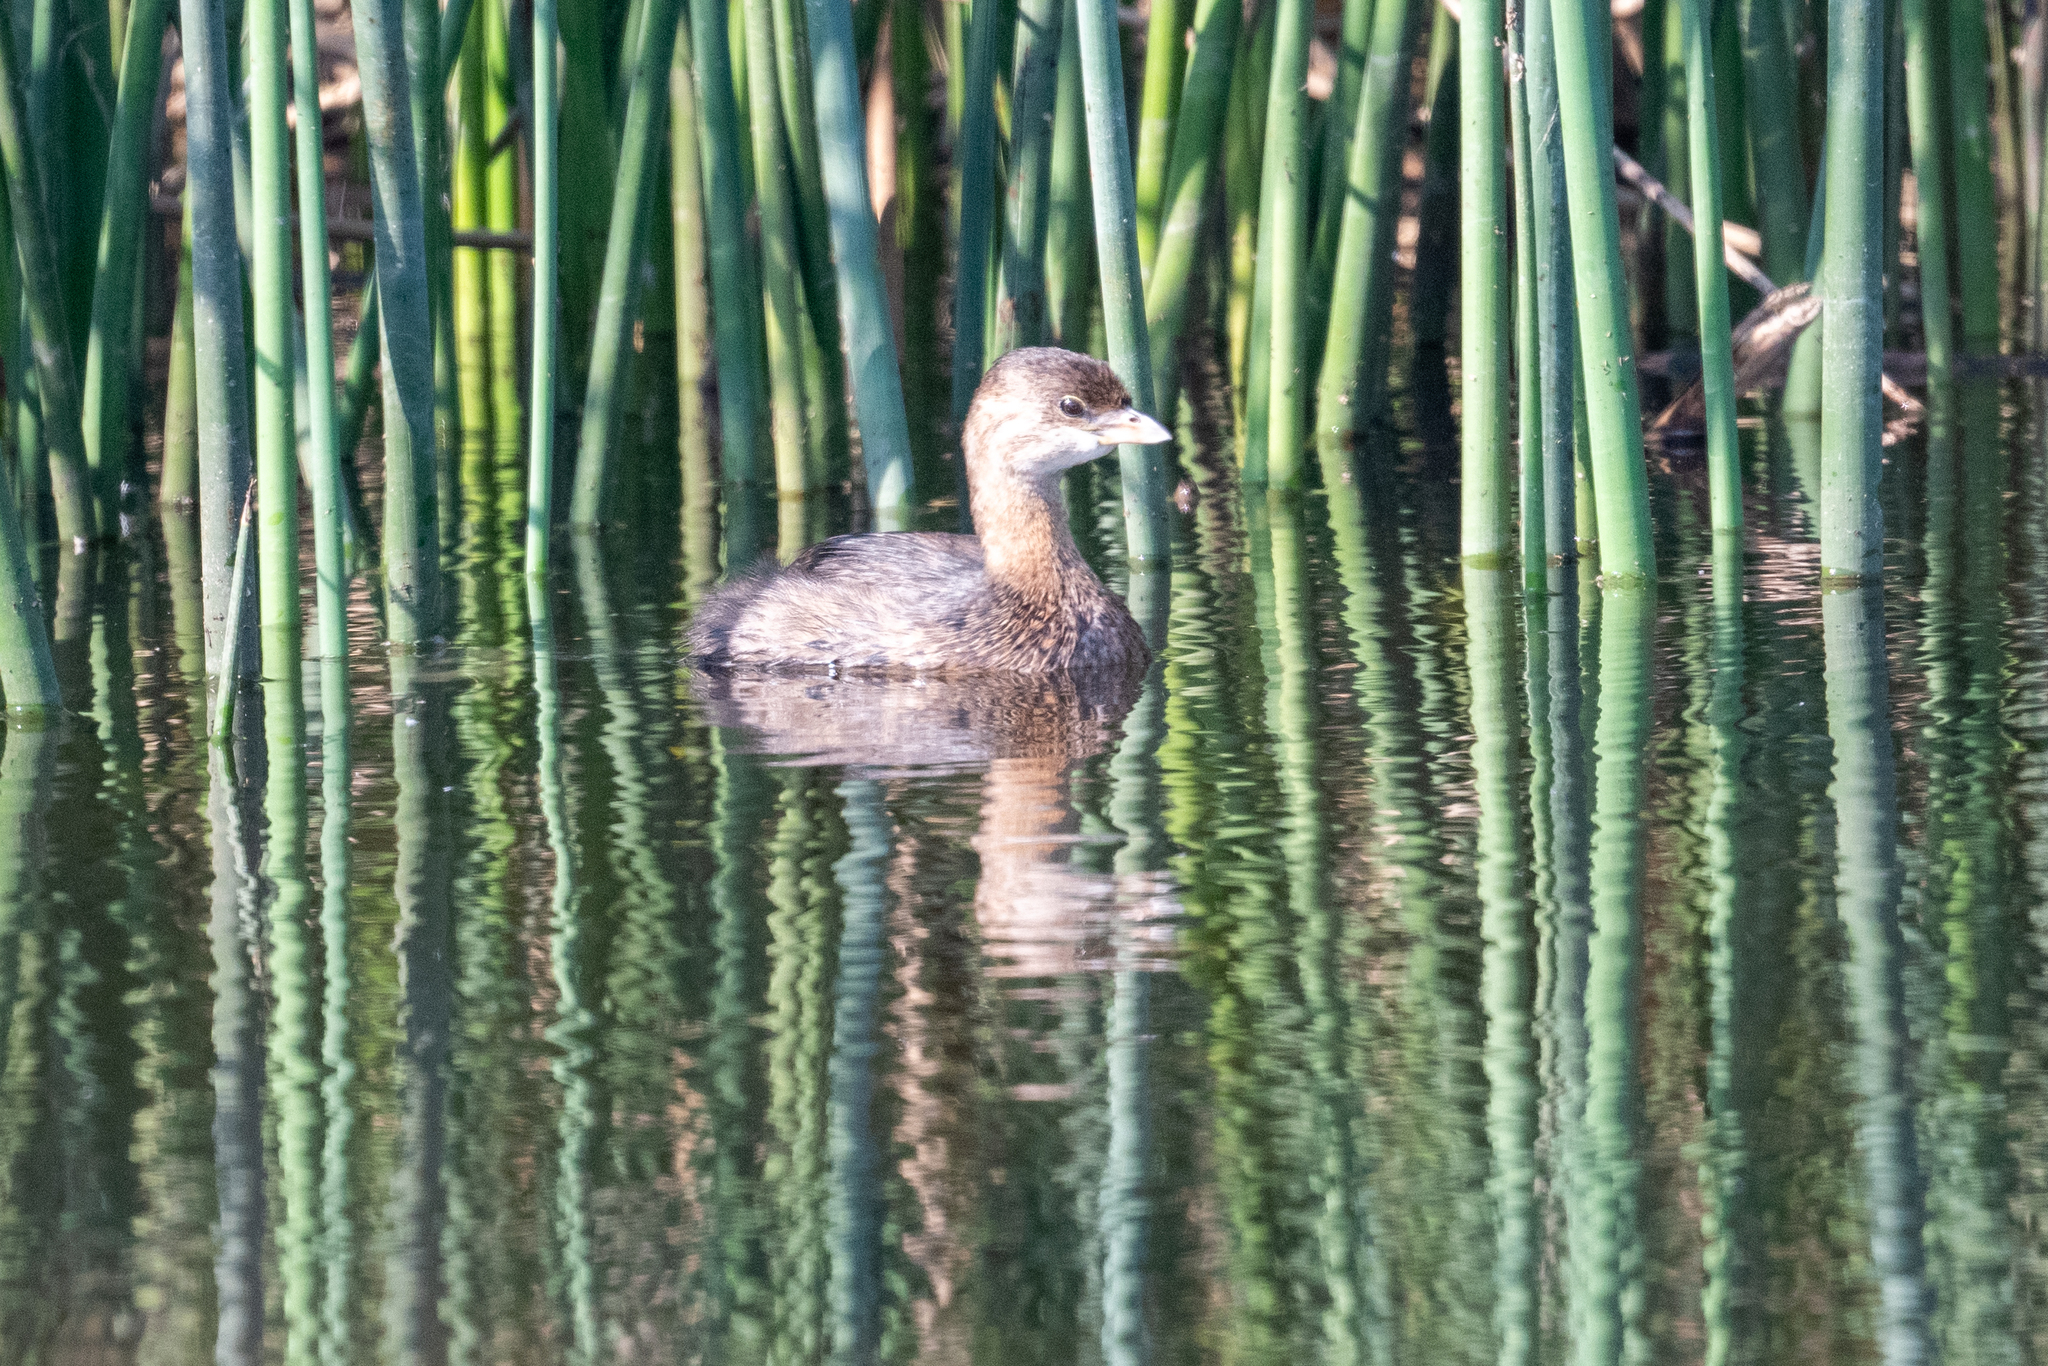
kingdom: Animalia
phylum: Chordata
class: Aves
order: Podicipediformes
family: Podicipedidae
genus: Podilymbus
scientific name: Podilymbus podiceps
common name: Pied-billed grebe
